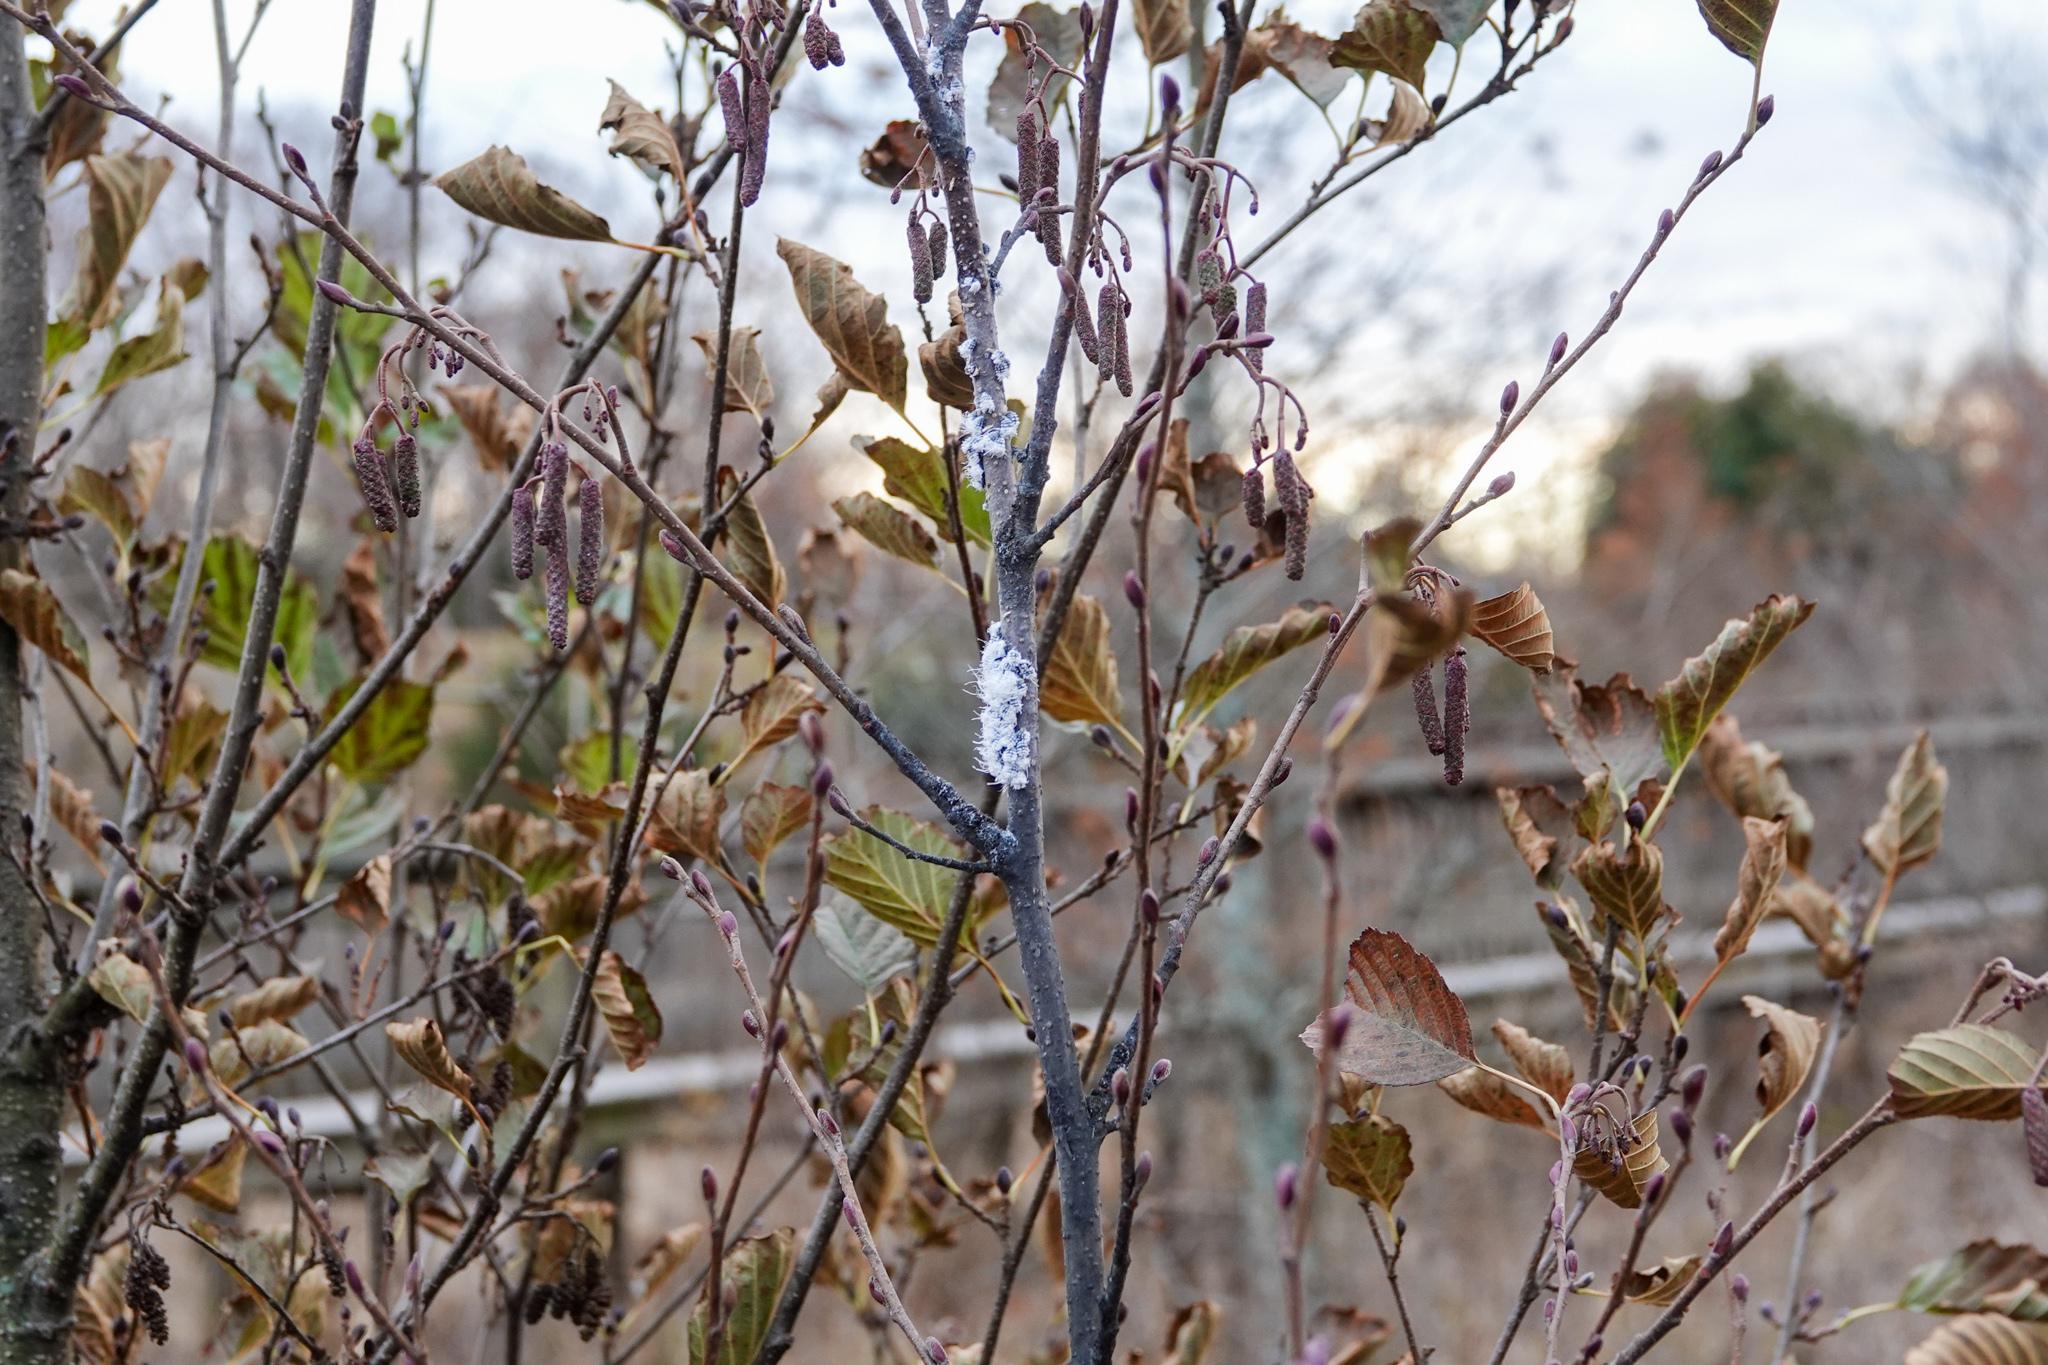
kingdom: Animalia
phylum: Arthropoda
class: Insecta
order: Hemiptera
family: Aphididae
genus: Prociphilus
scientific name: Prociphilus tessellatus
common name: Woolly alder aphid
